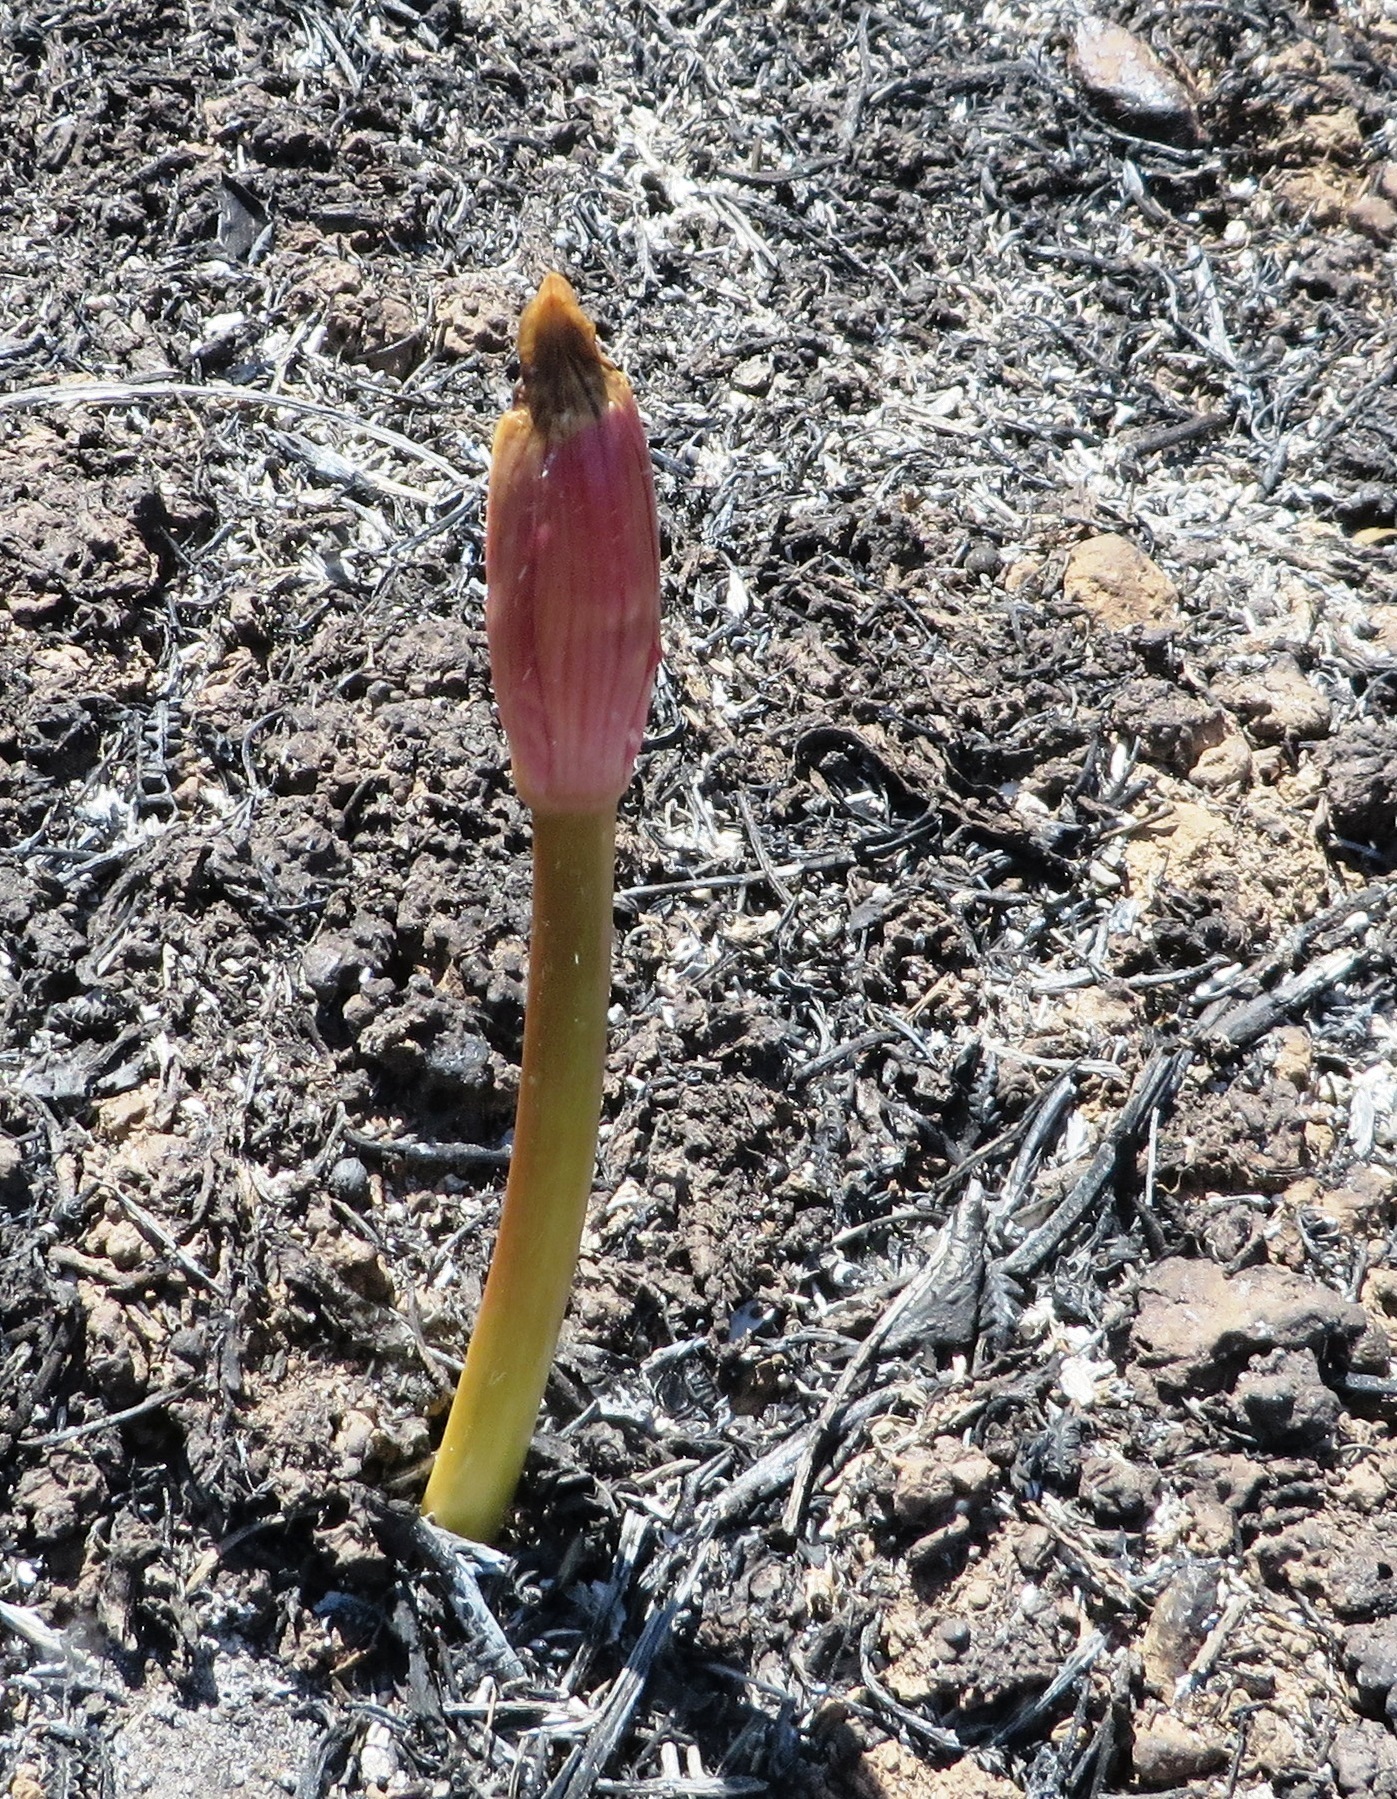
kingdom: Plantae
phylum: Tracheophyta
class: Liliopsida
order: Asparagales
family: Amaryllidaceae
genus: Amaryllis
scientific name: Amaryllis belladonna
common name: Jersey lily
